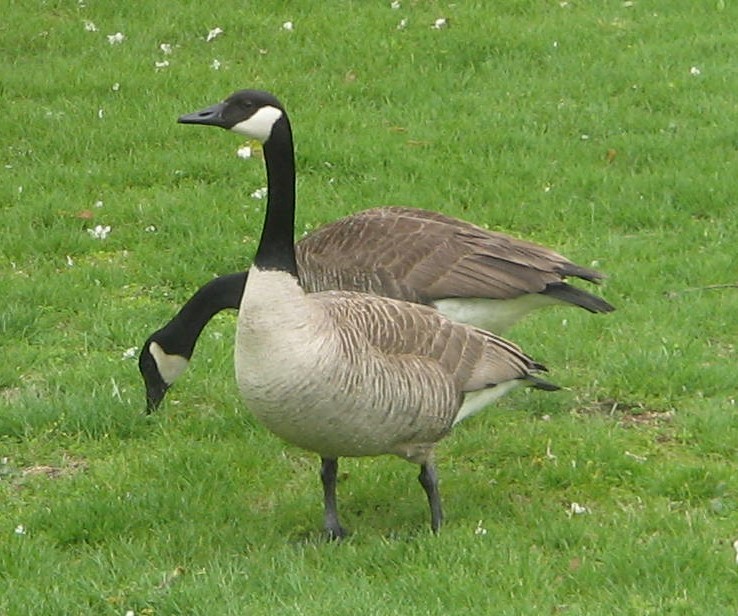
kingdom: Animalia
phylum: Chordata
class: Aves
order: Anseriformes
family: Anatidae
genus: Branta
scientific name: Branta canadensis
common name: Canada goose
